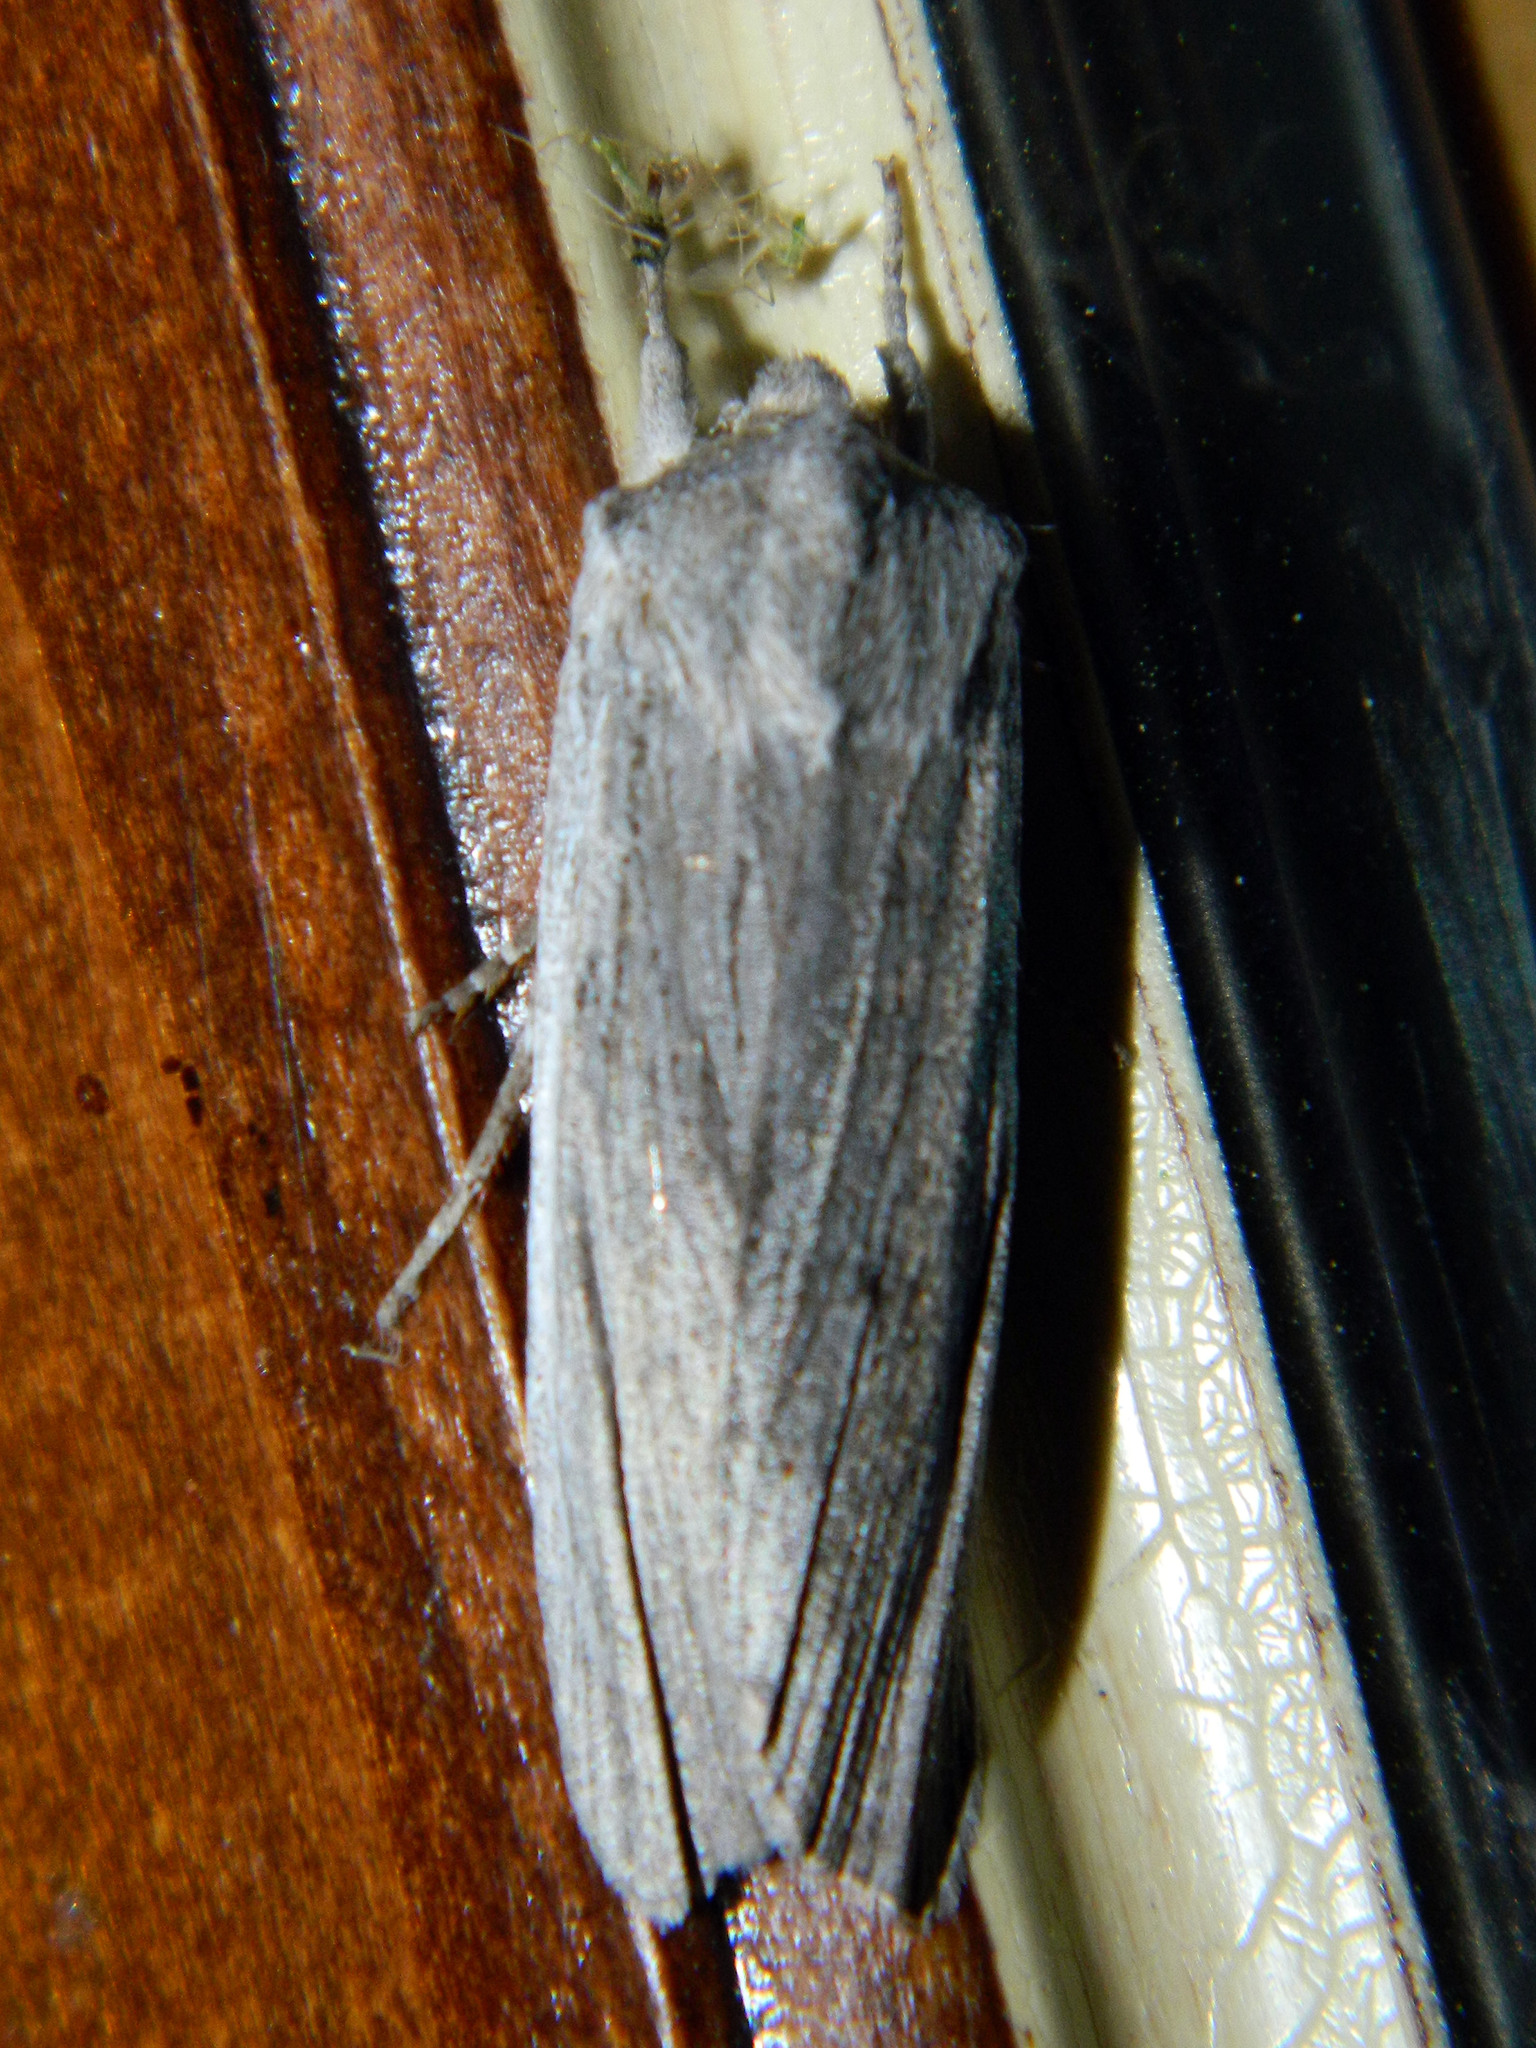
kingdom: Animalia
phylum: Arthropoda
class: Insecta
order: Lepidoptera
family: Noctuidae
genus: Lithophane
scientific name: Lithophane fagina
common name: Hoary pinion moth
